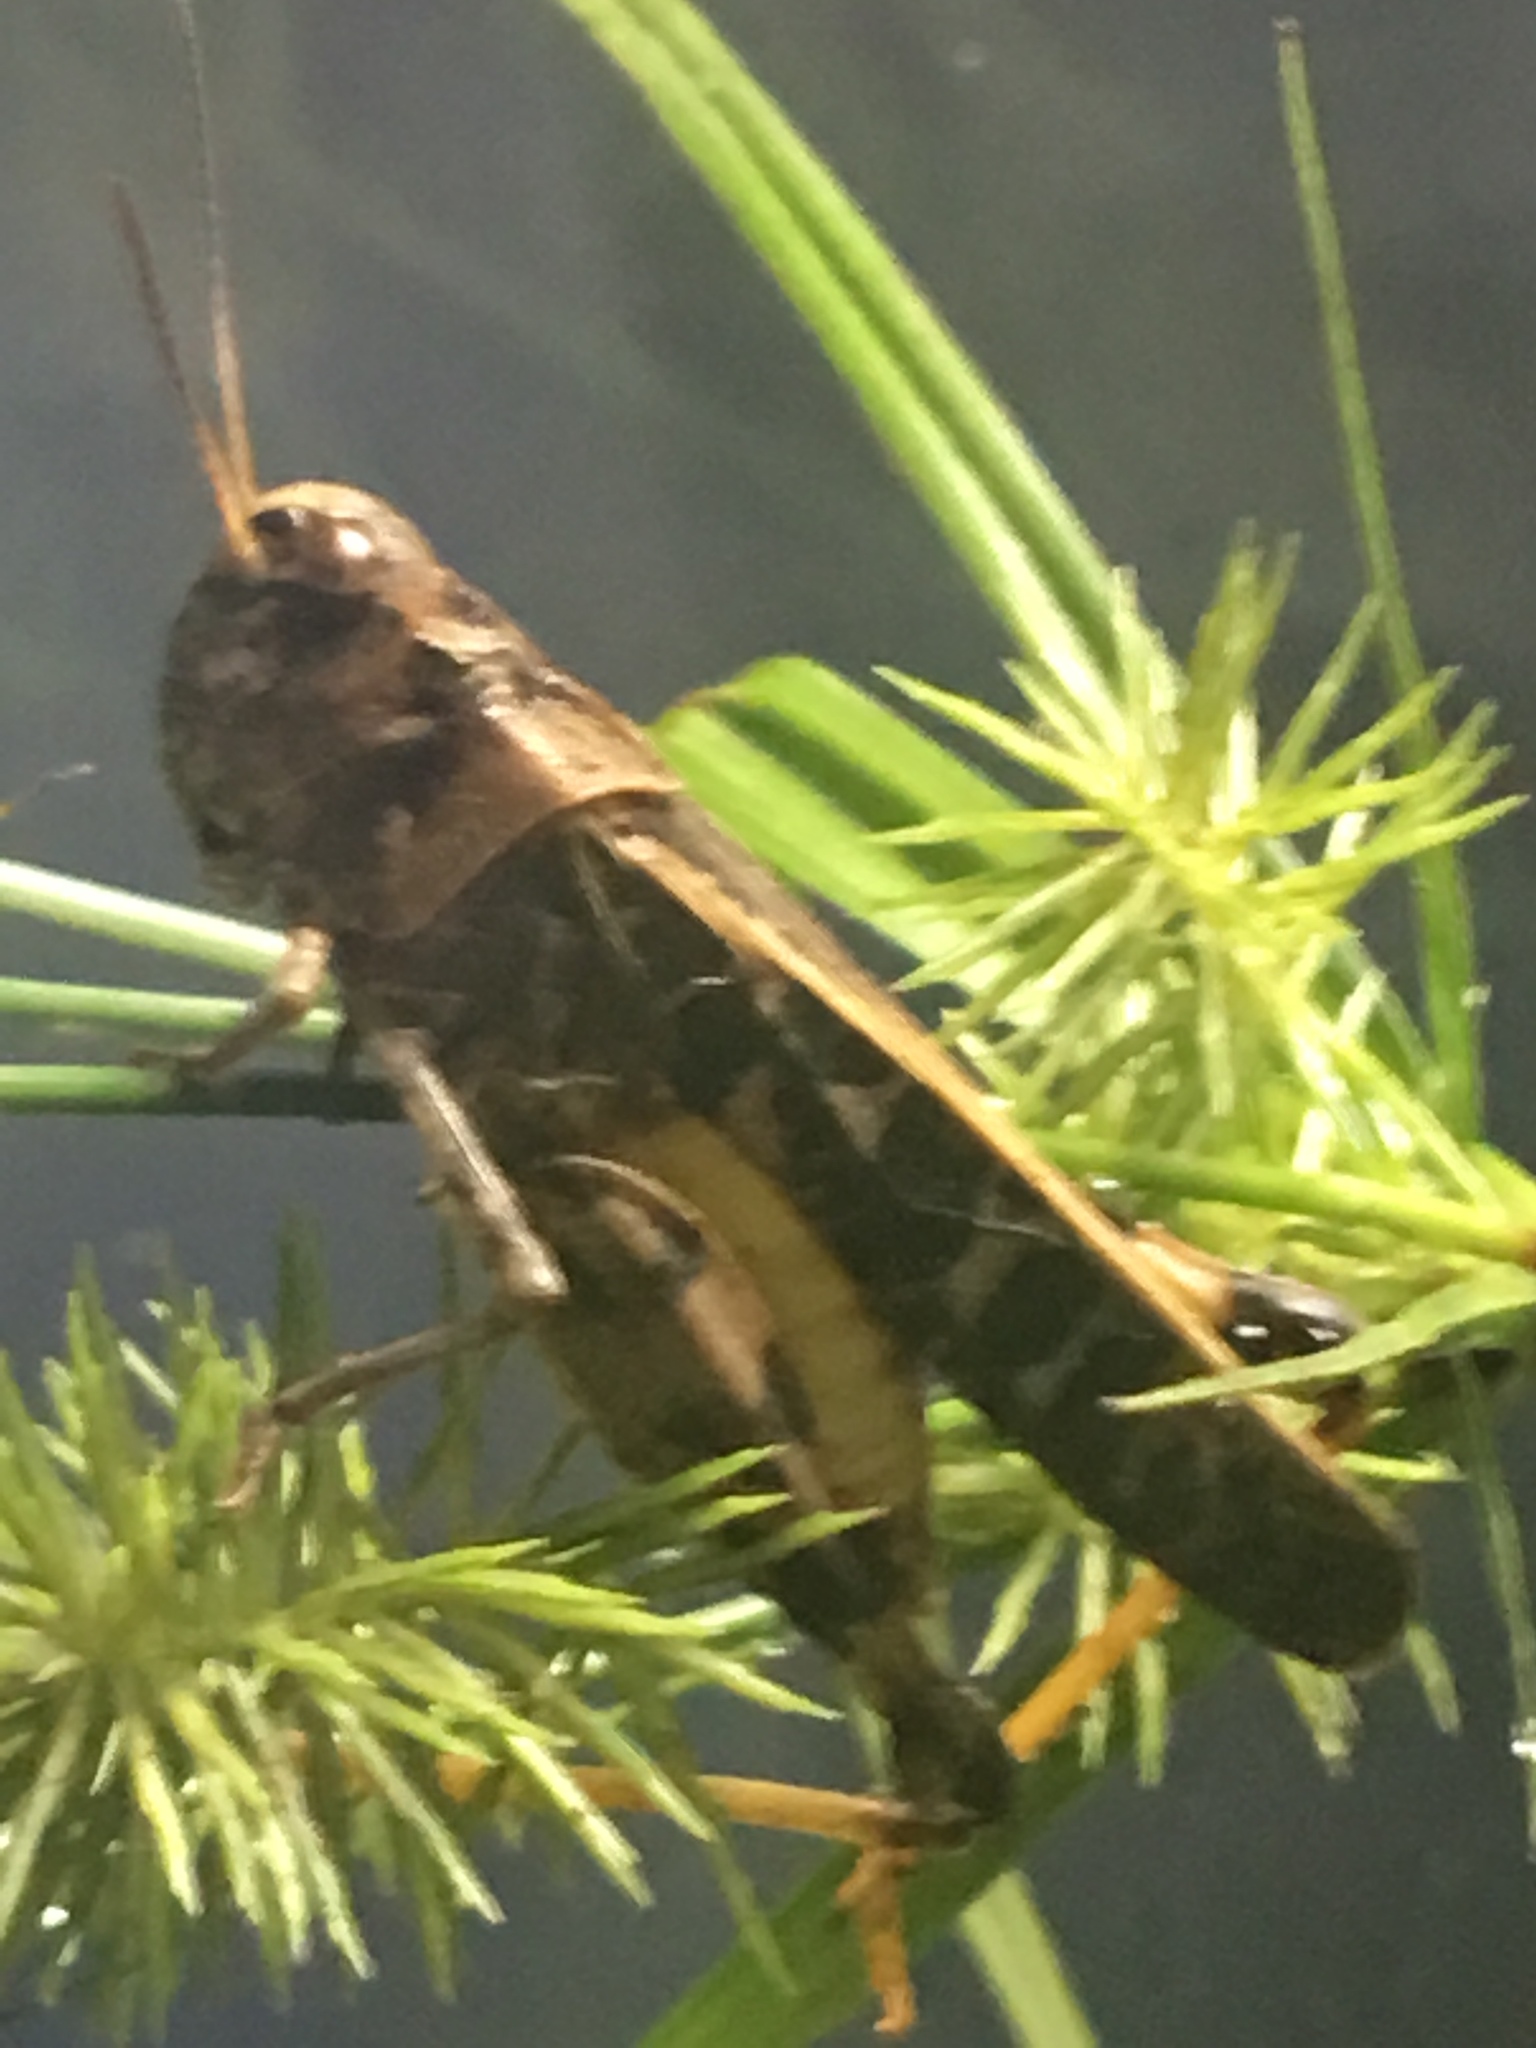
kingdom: Animalia
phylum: Arthropoda
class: Insecta
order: Orthoptera
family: Acrididae
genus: Hippiscus
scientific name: Hippiscus ocelote
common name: Wrinkled grasshopper
